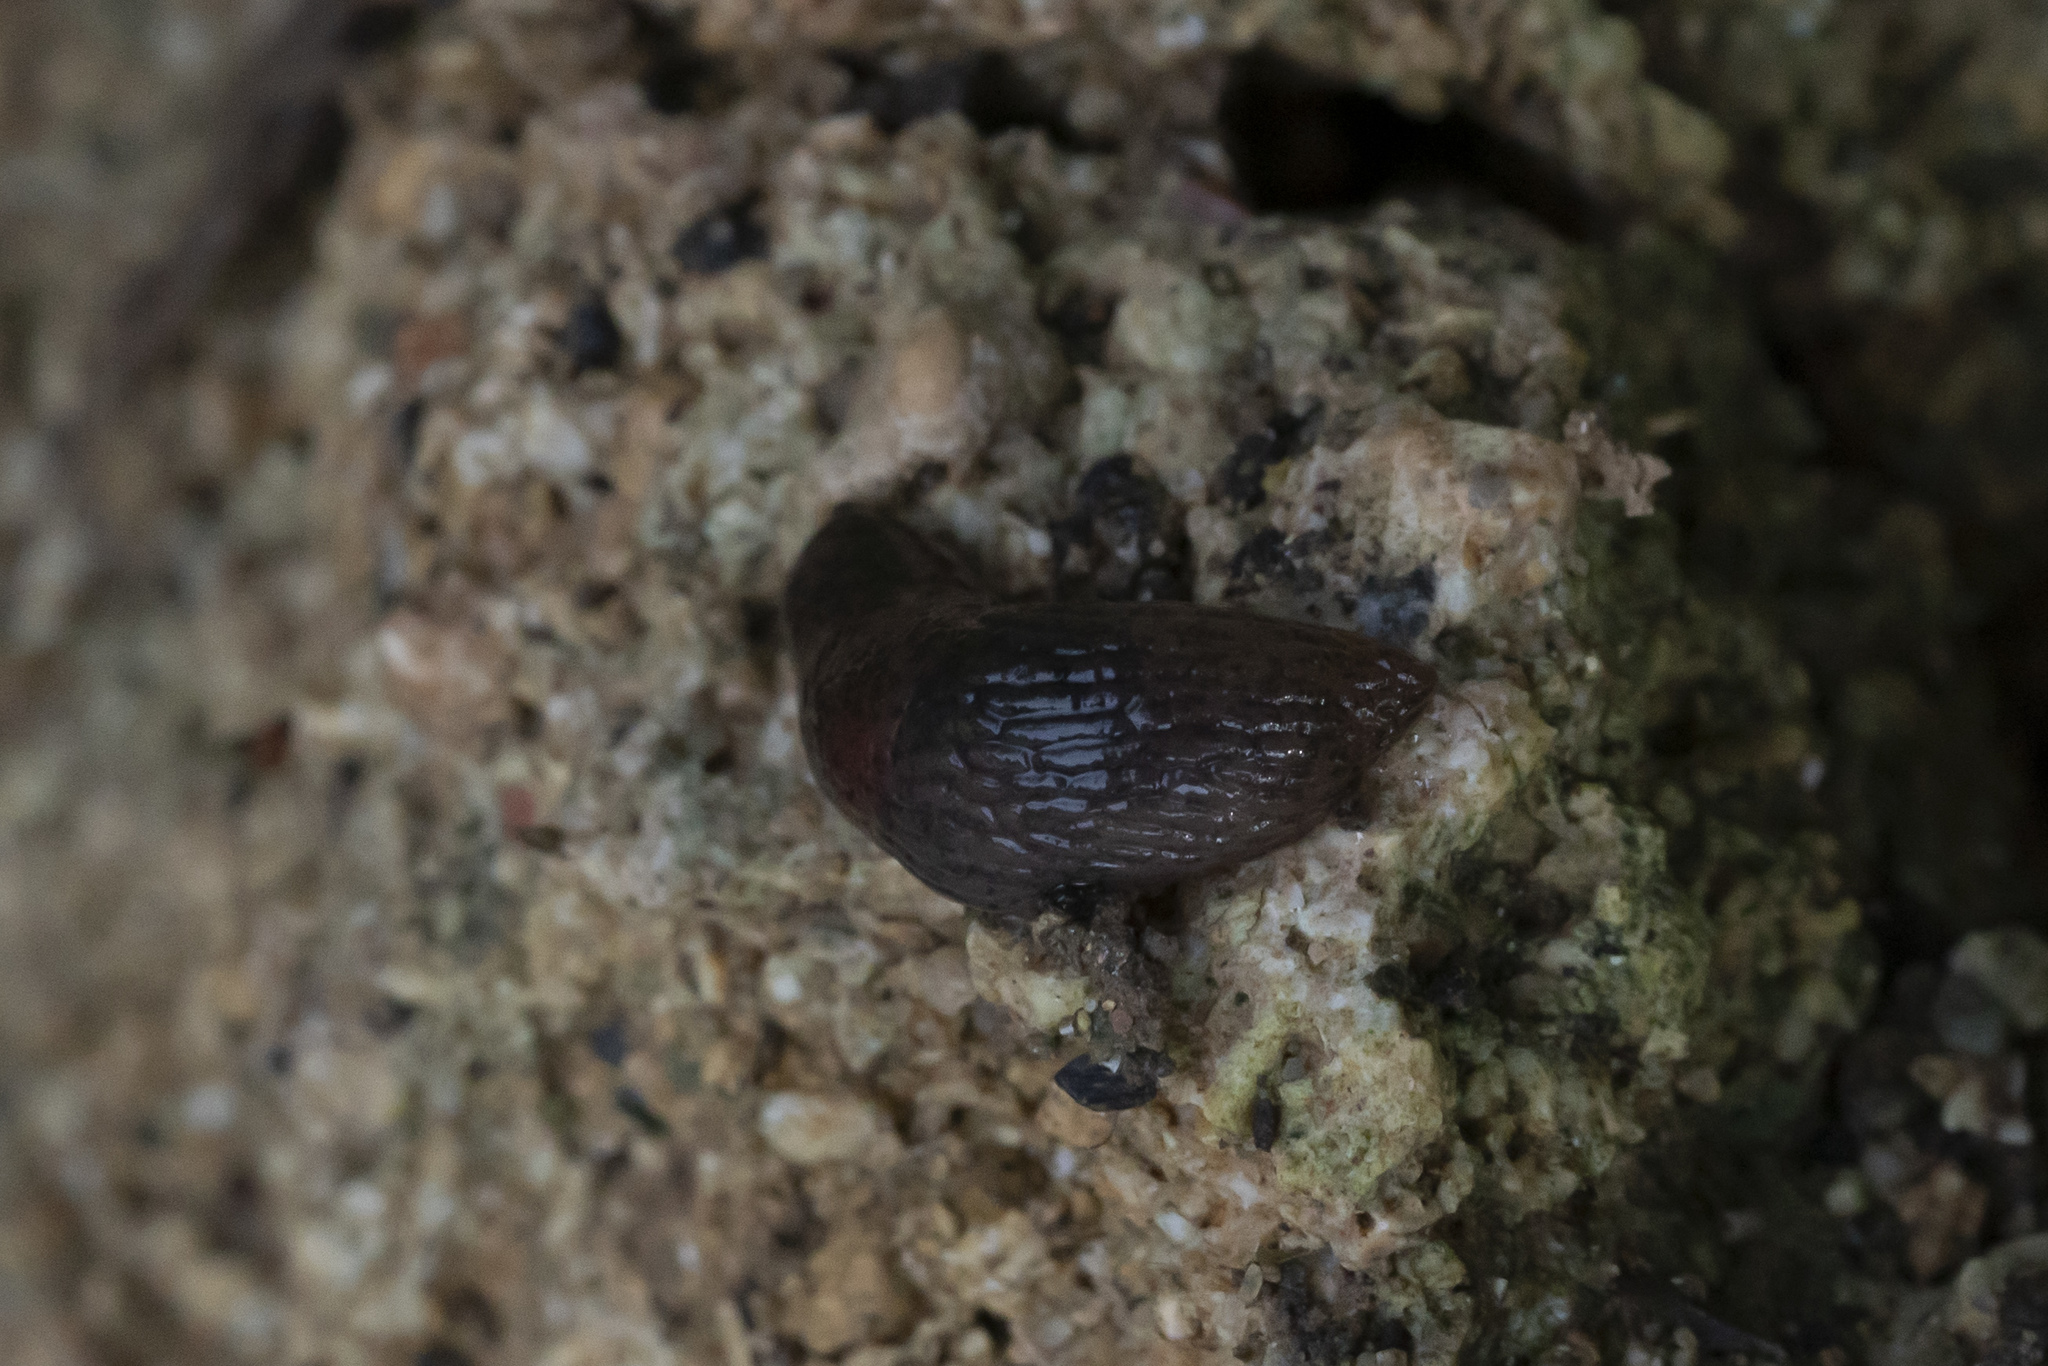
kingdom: Animalia
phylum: Mollusca
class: Gastropoda
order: Stylommatophora
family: Agriolimacidae
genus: Deroceras
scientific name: Deroceras neuteboomi
